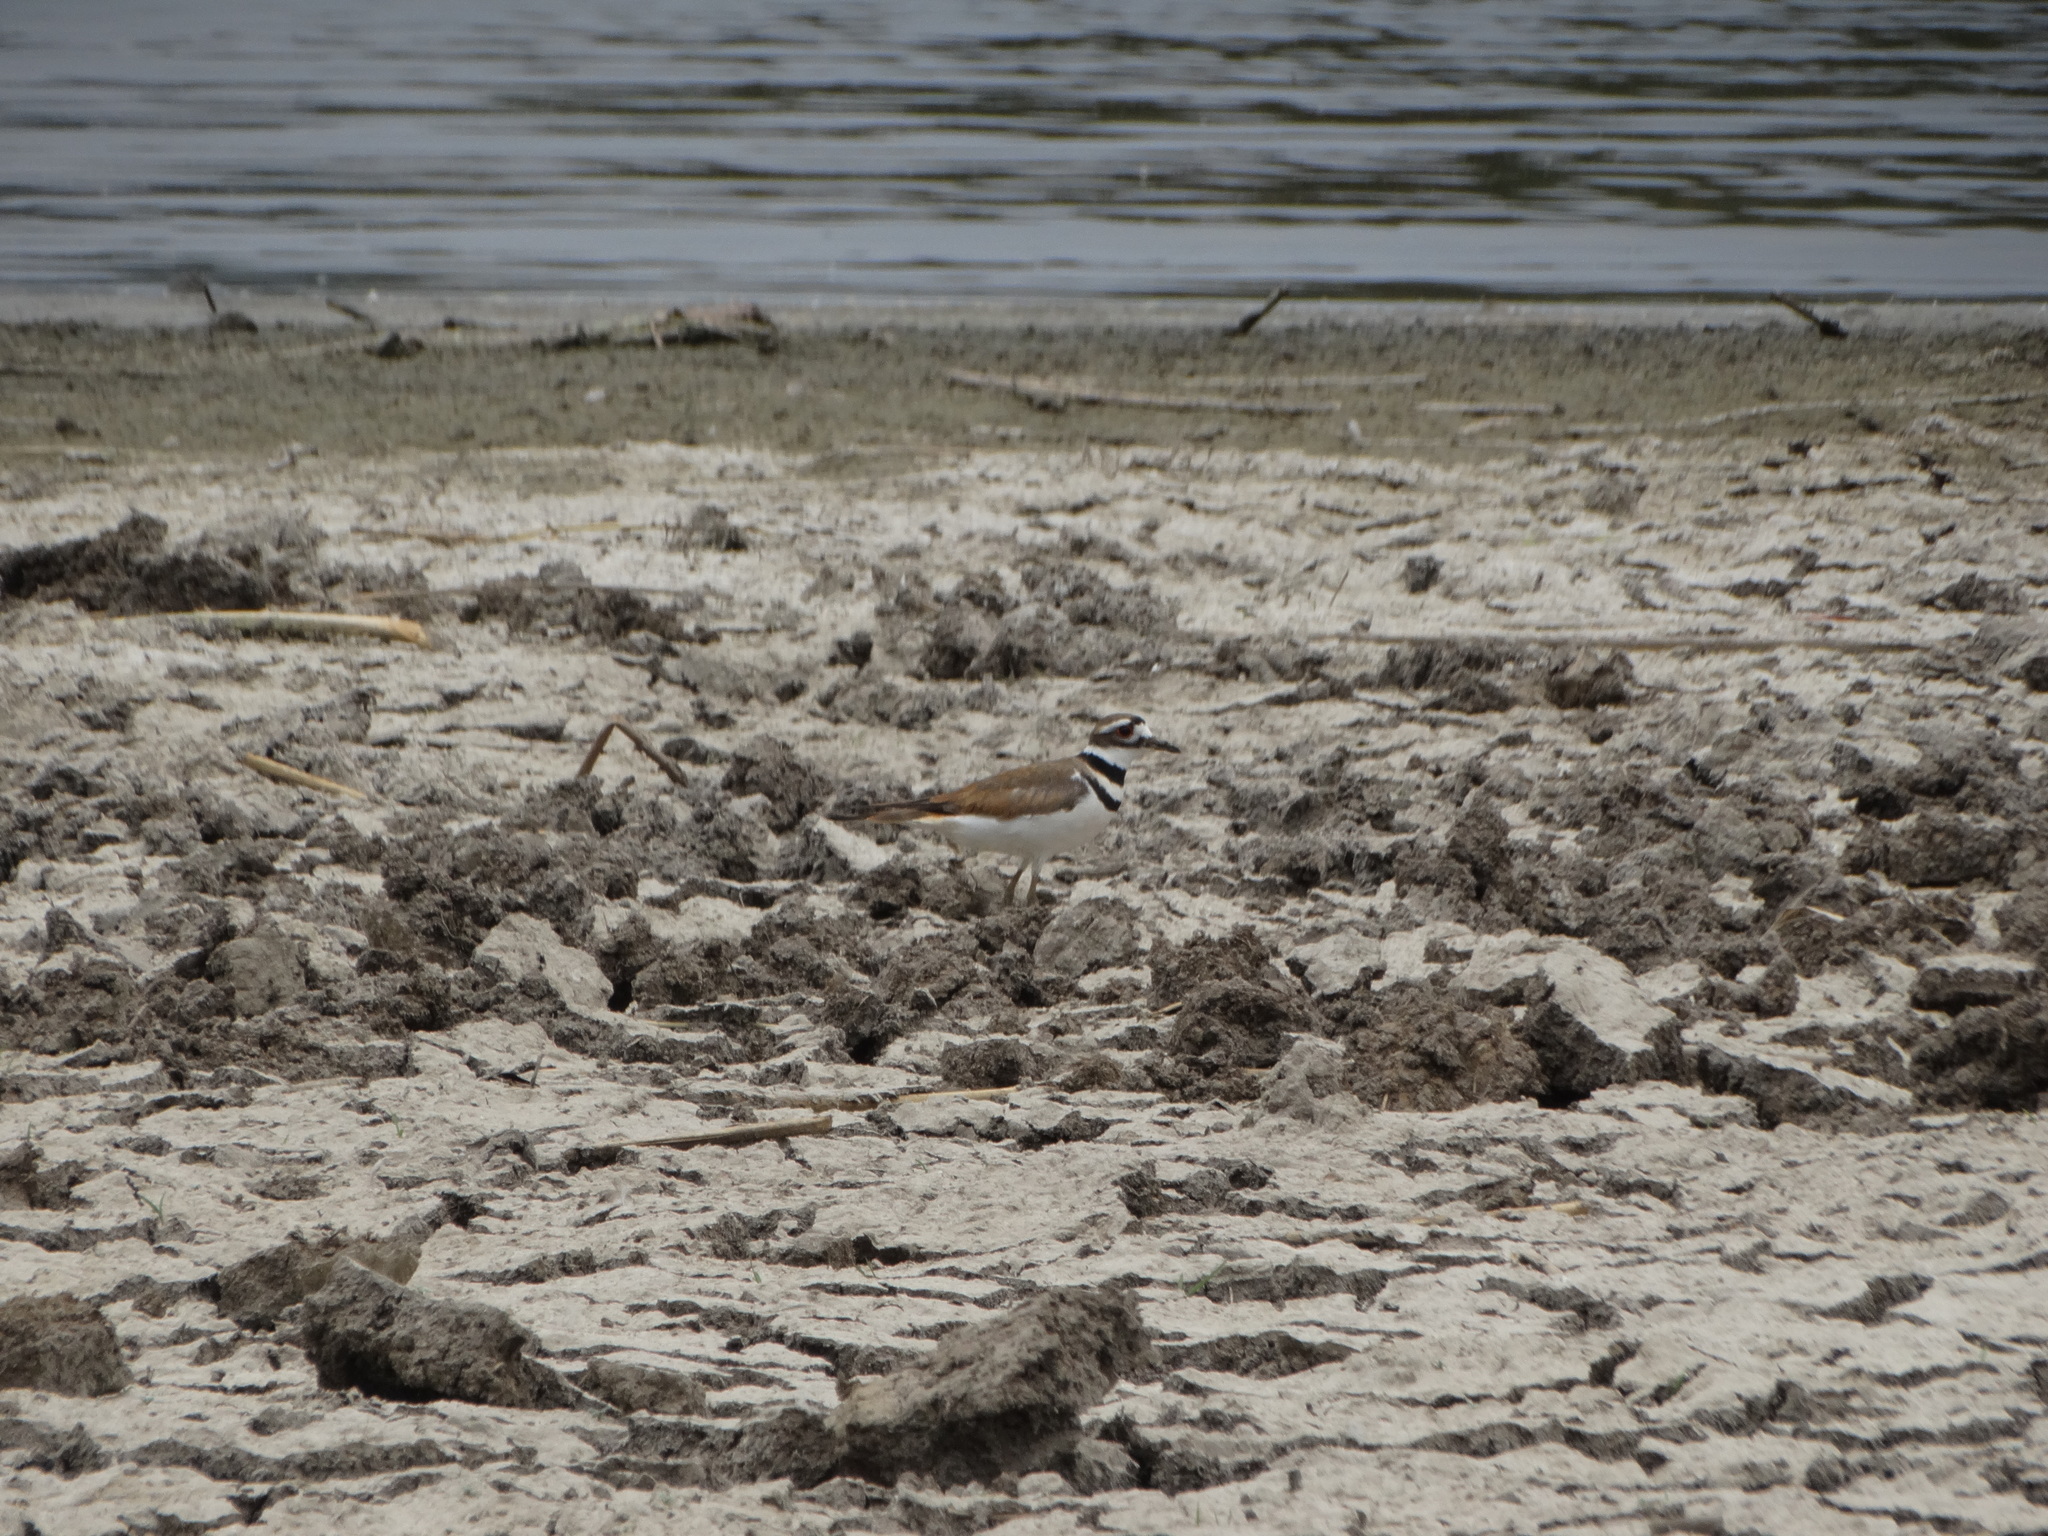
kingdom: Animalia
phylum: Chordata
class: Aves
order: Charadriiformes
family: Charadriidae
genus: Charadrius
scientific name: Charadrius vociferus
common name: Killdeer
